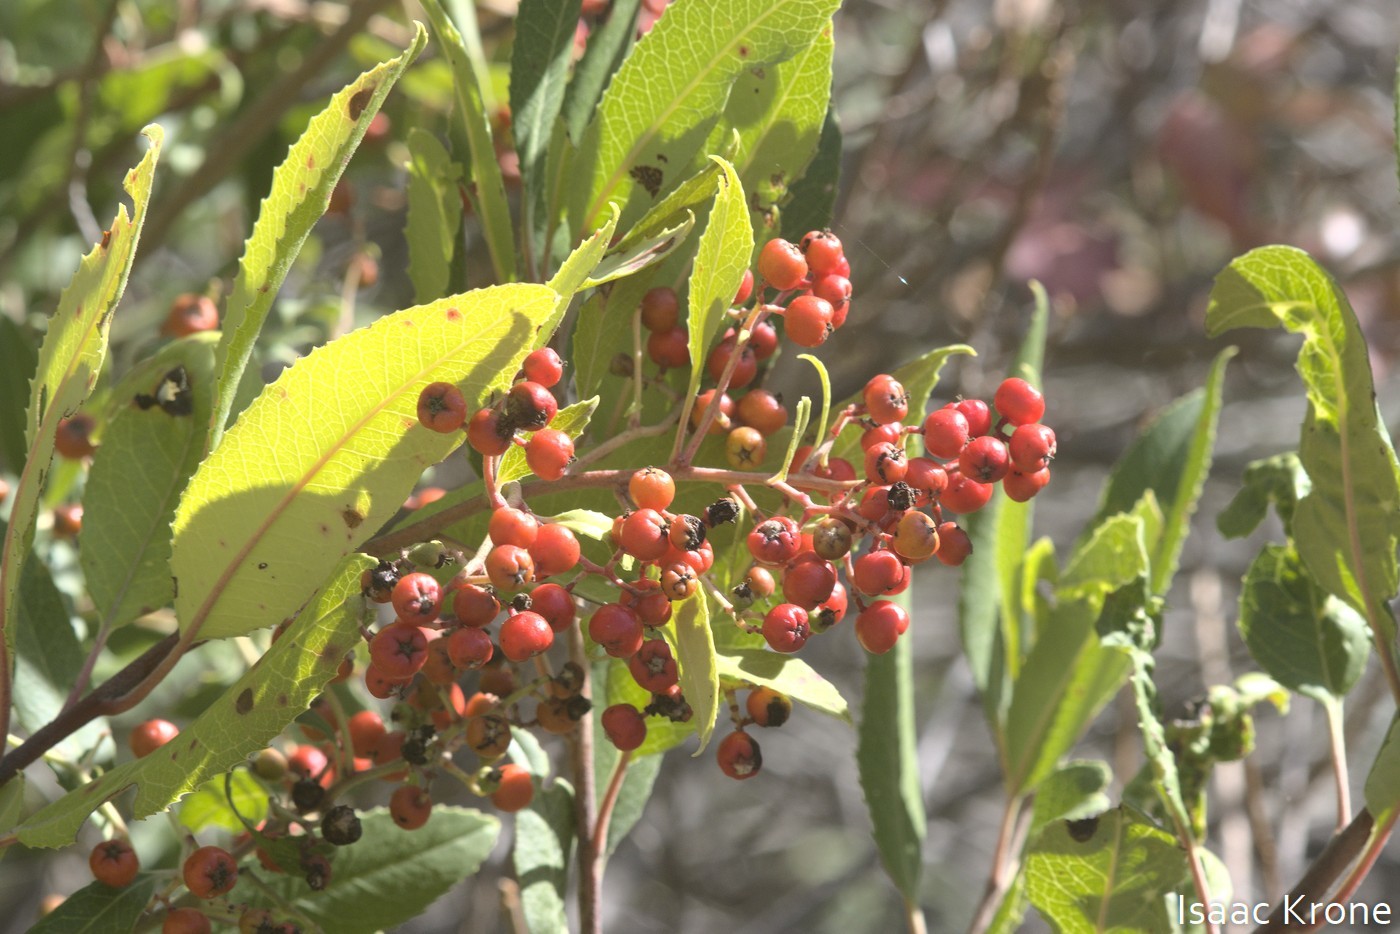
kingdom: Plantae
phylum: Tracheophyta
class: Magnoliopsida
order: Rosales
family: Rosaceae
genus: Heteromeles
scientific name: Heteromeles arbutifolia
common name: California-holly
